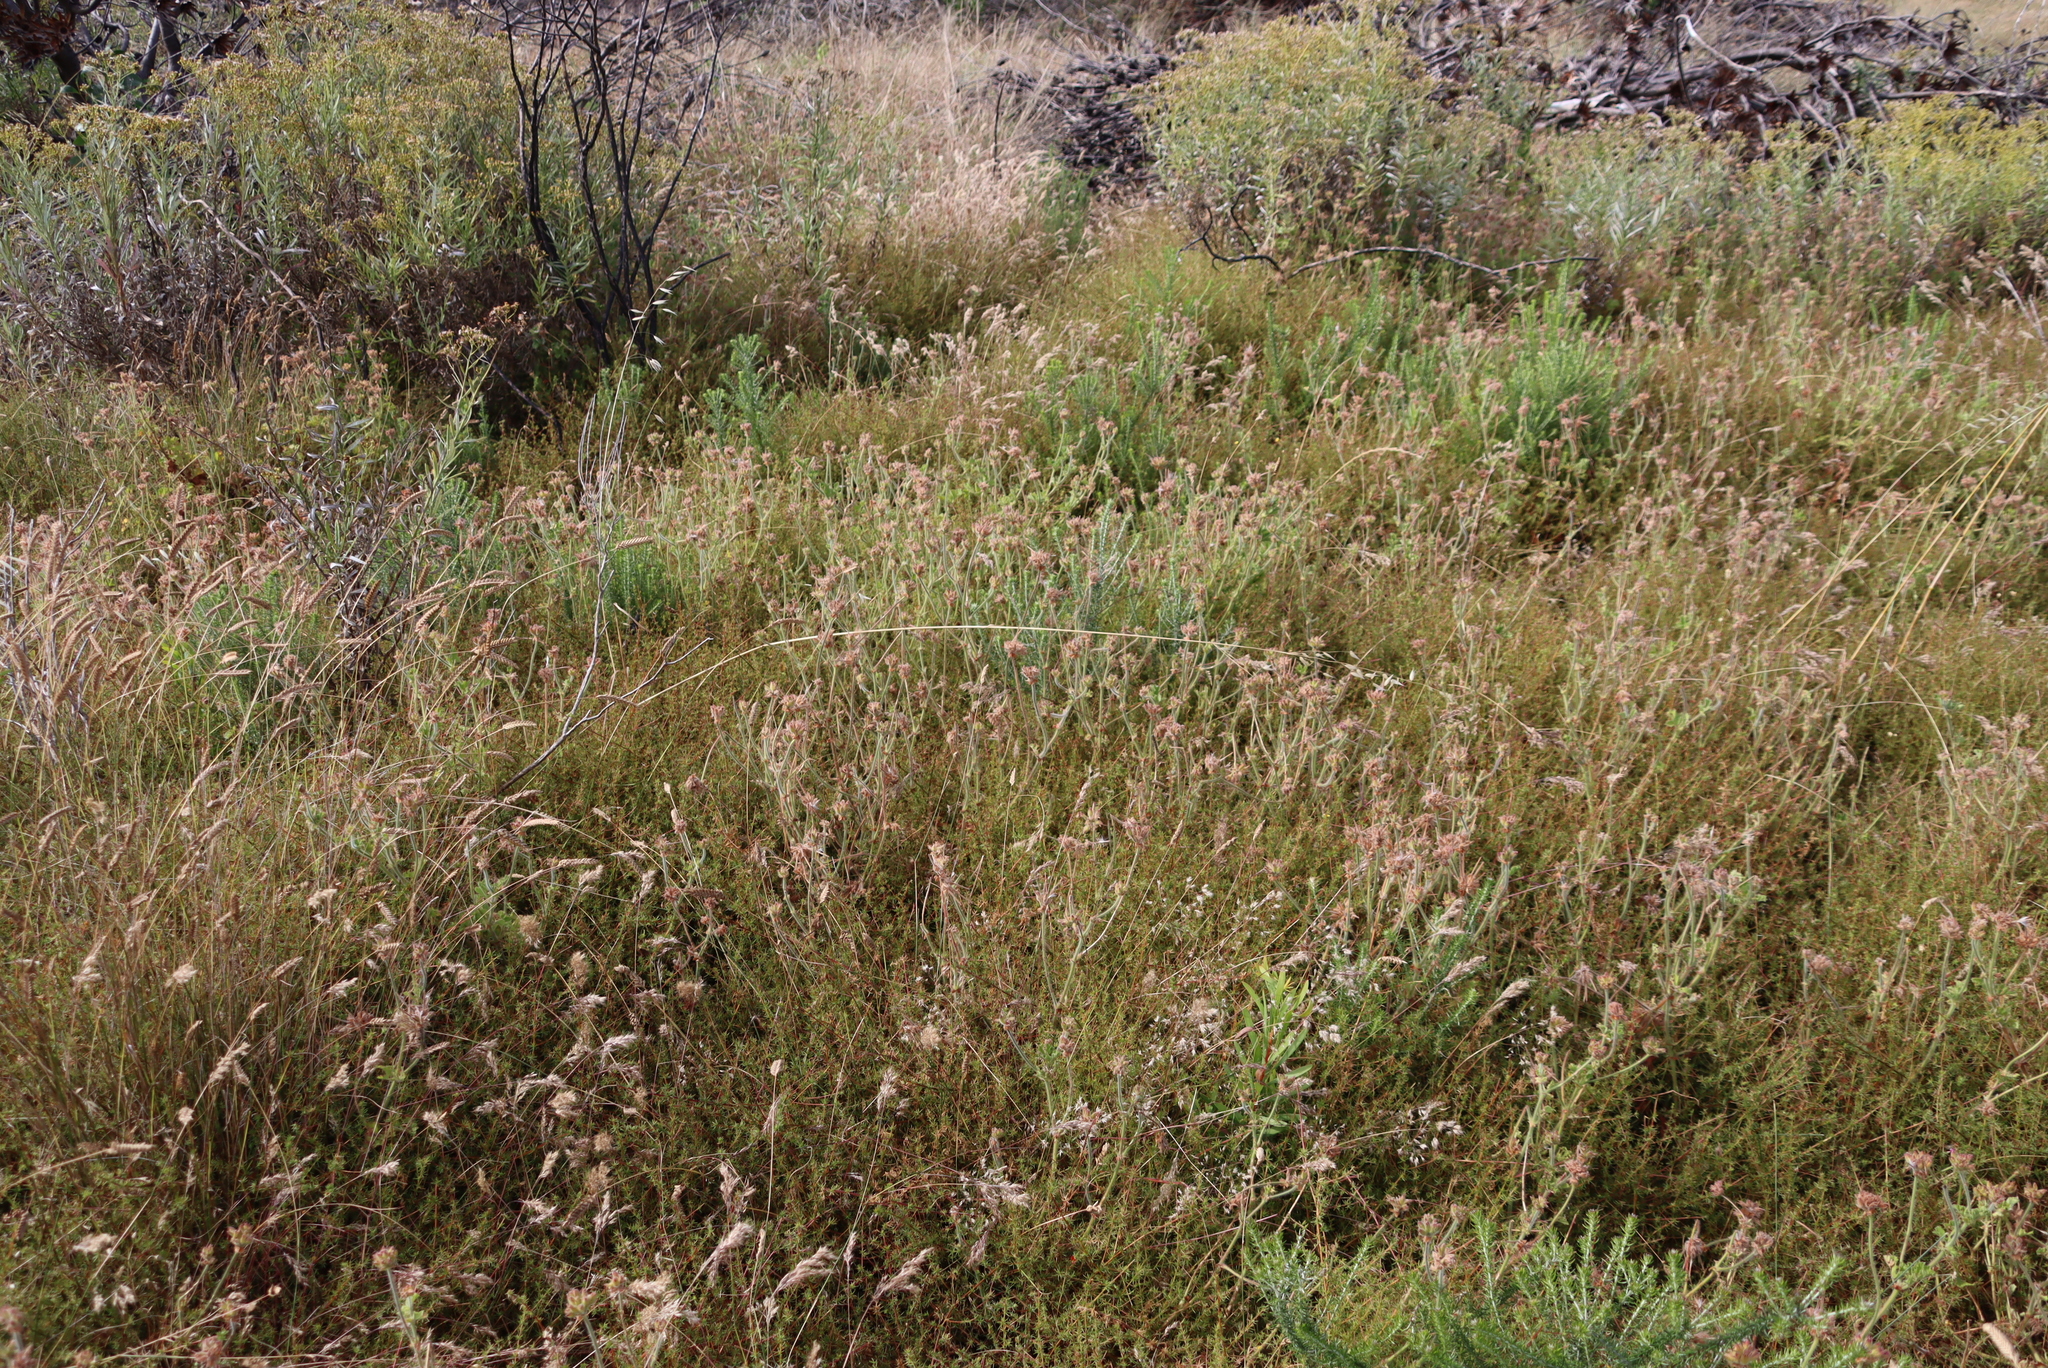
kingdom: Plantae
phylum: Tracheophyta
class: Magnoliopsida
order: Geraniales
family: Geraniaceae
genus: Pelargonium
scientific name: Pelargonium capitatum
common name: Rose scented geranium
